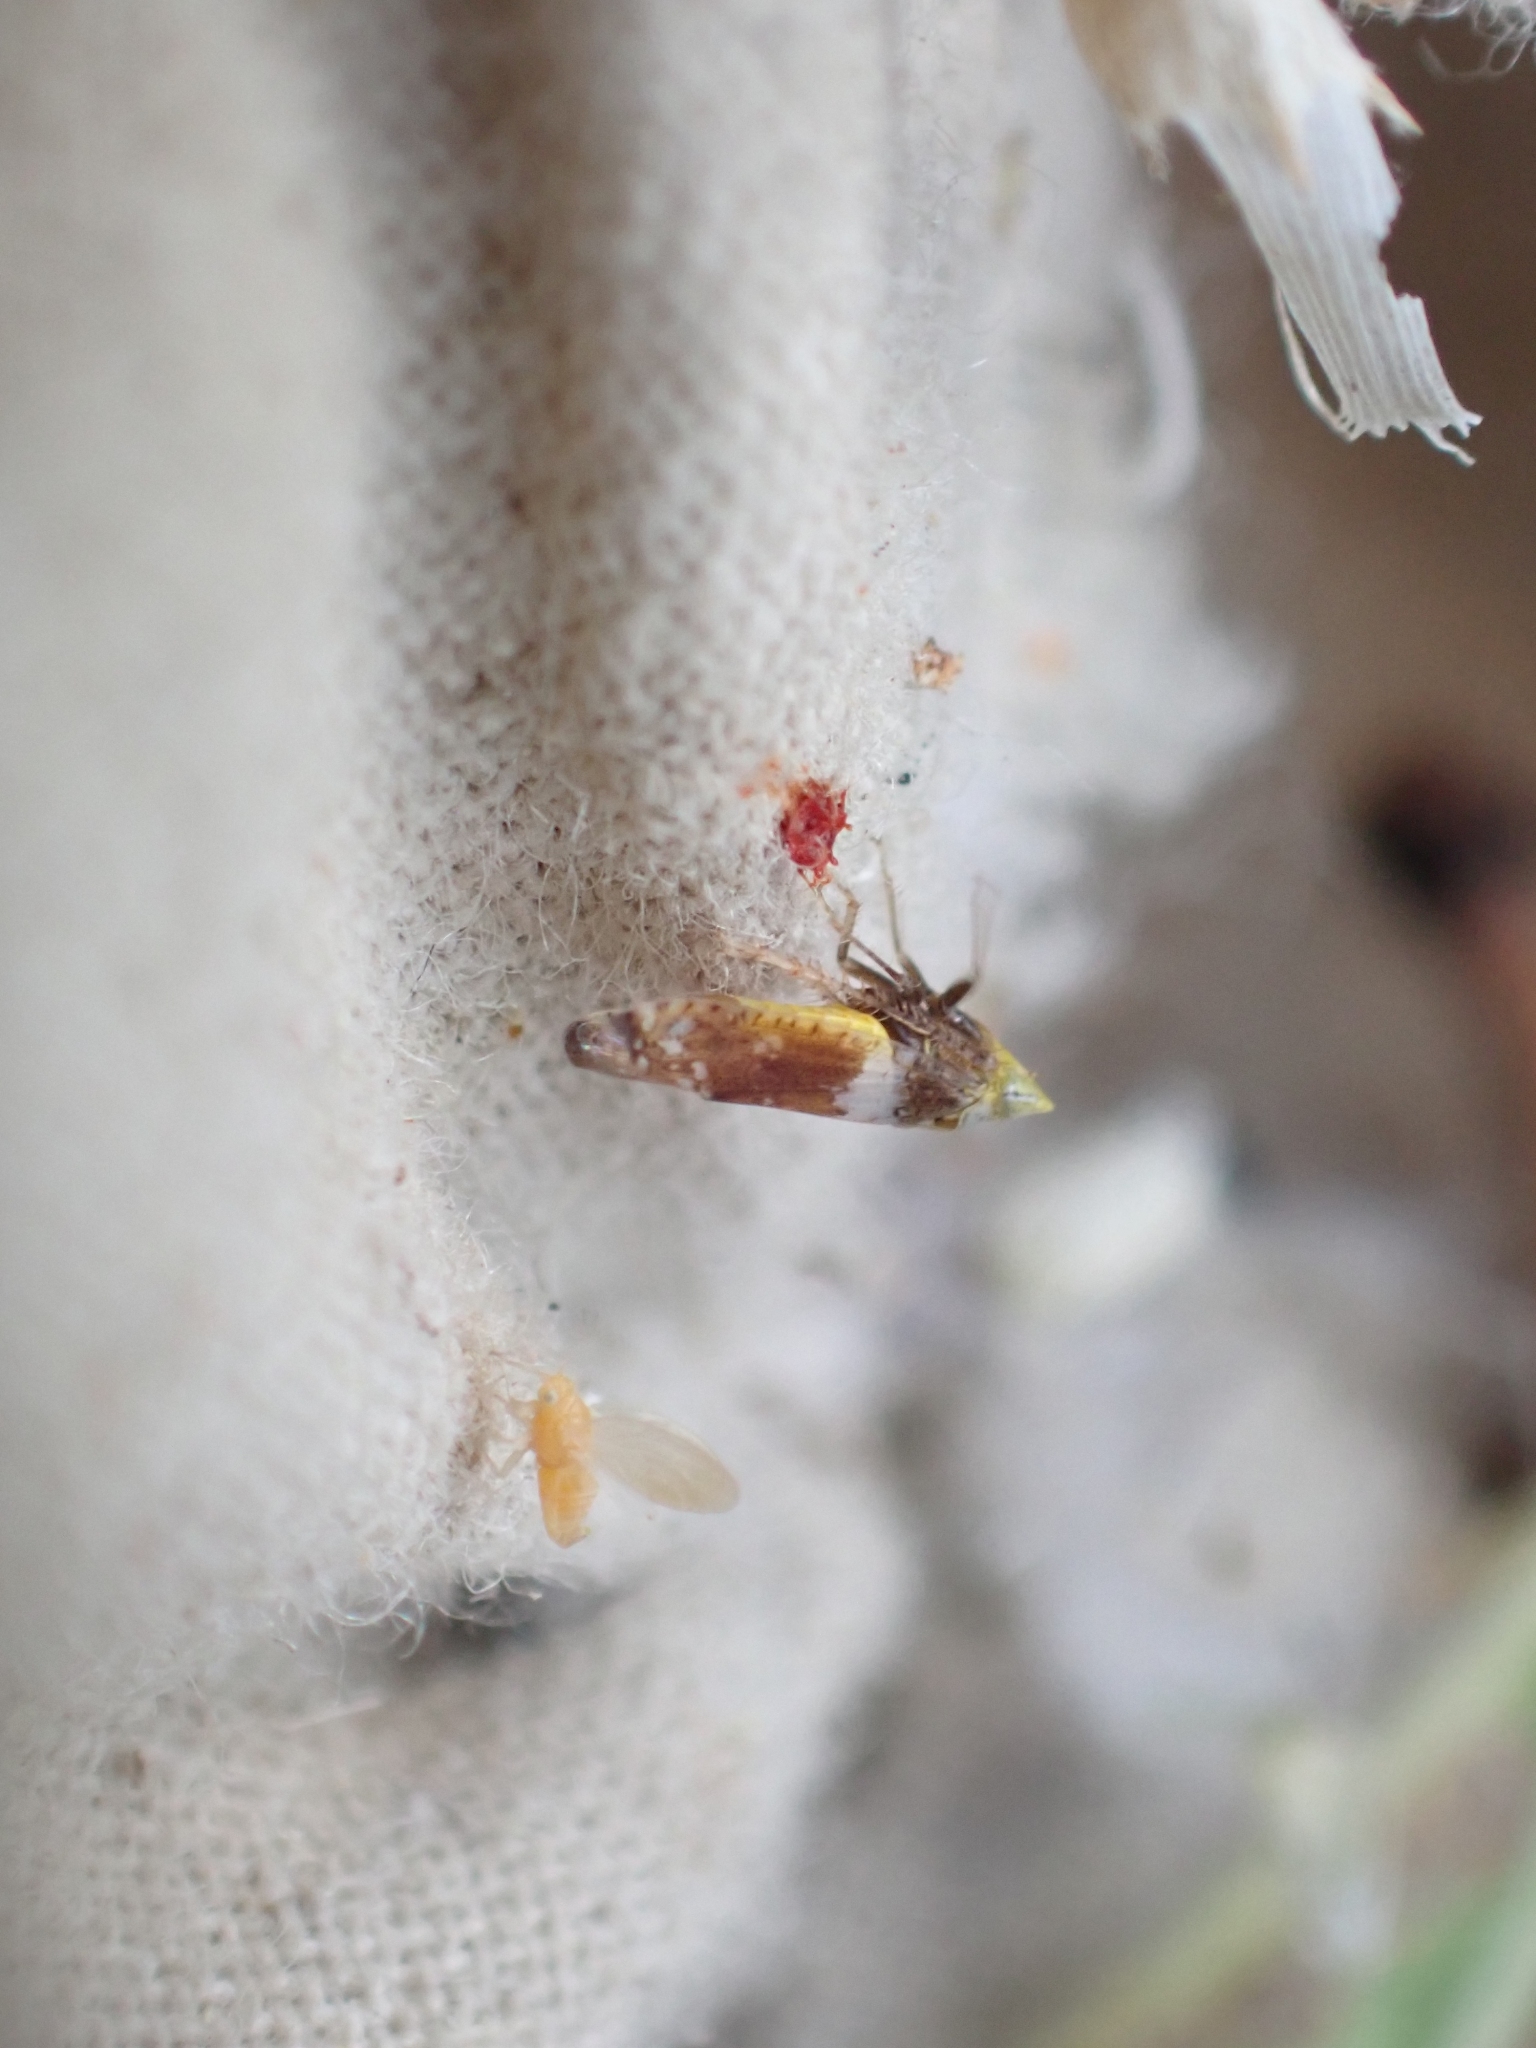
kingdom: Animalia
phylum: Arthropoda
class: Insecta
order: Hemiptera
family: Cicadellidae
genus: Twiningia
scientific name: Twiningia fasciata
